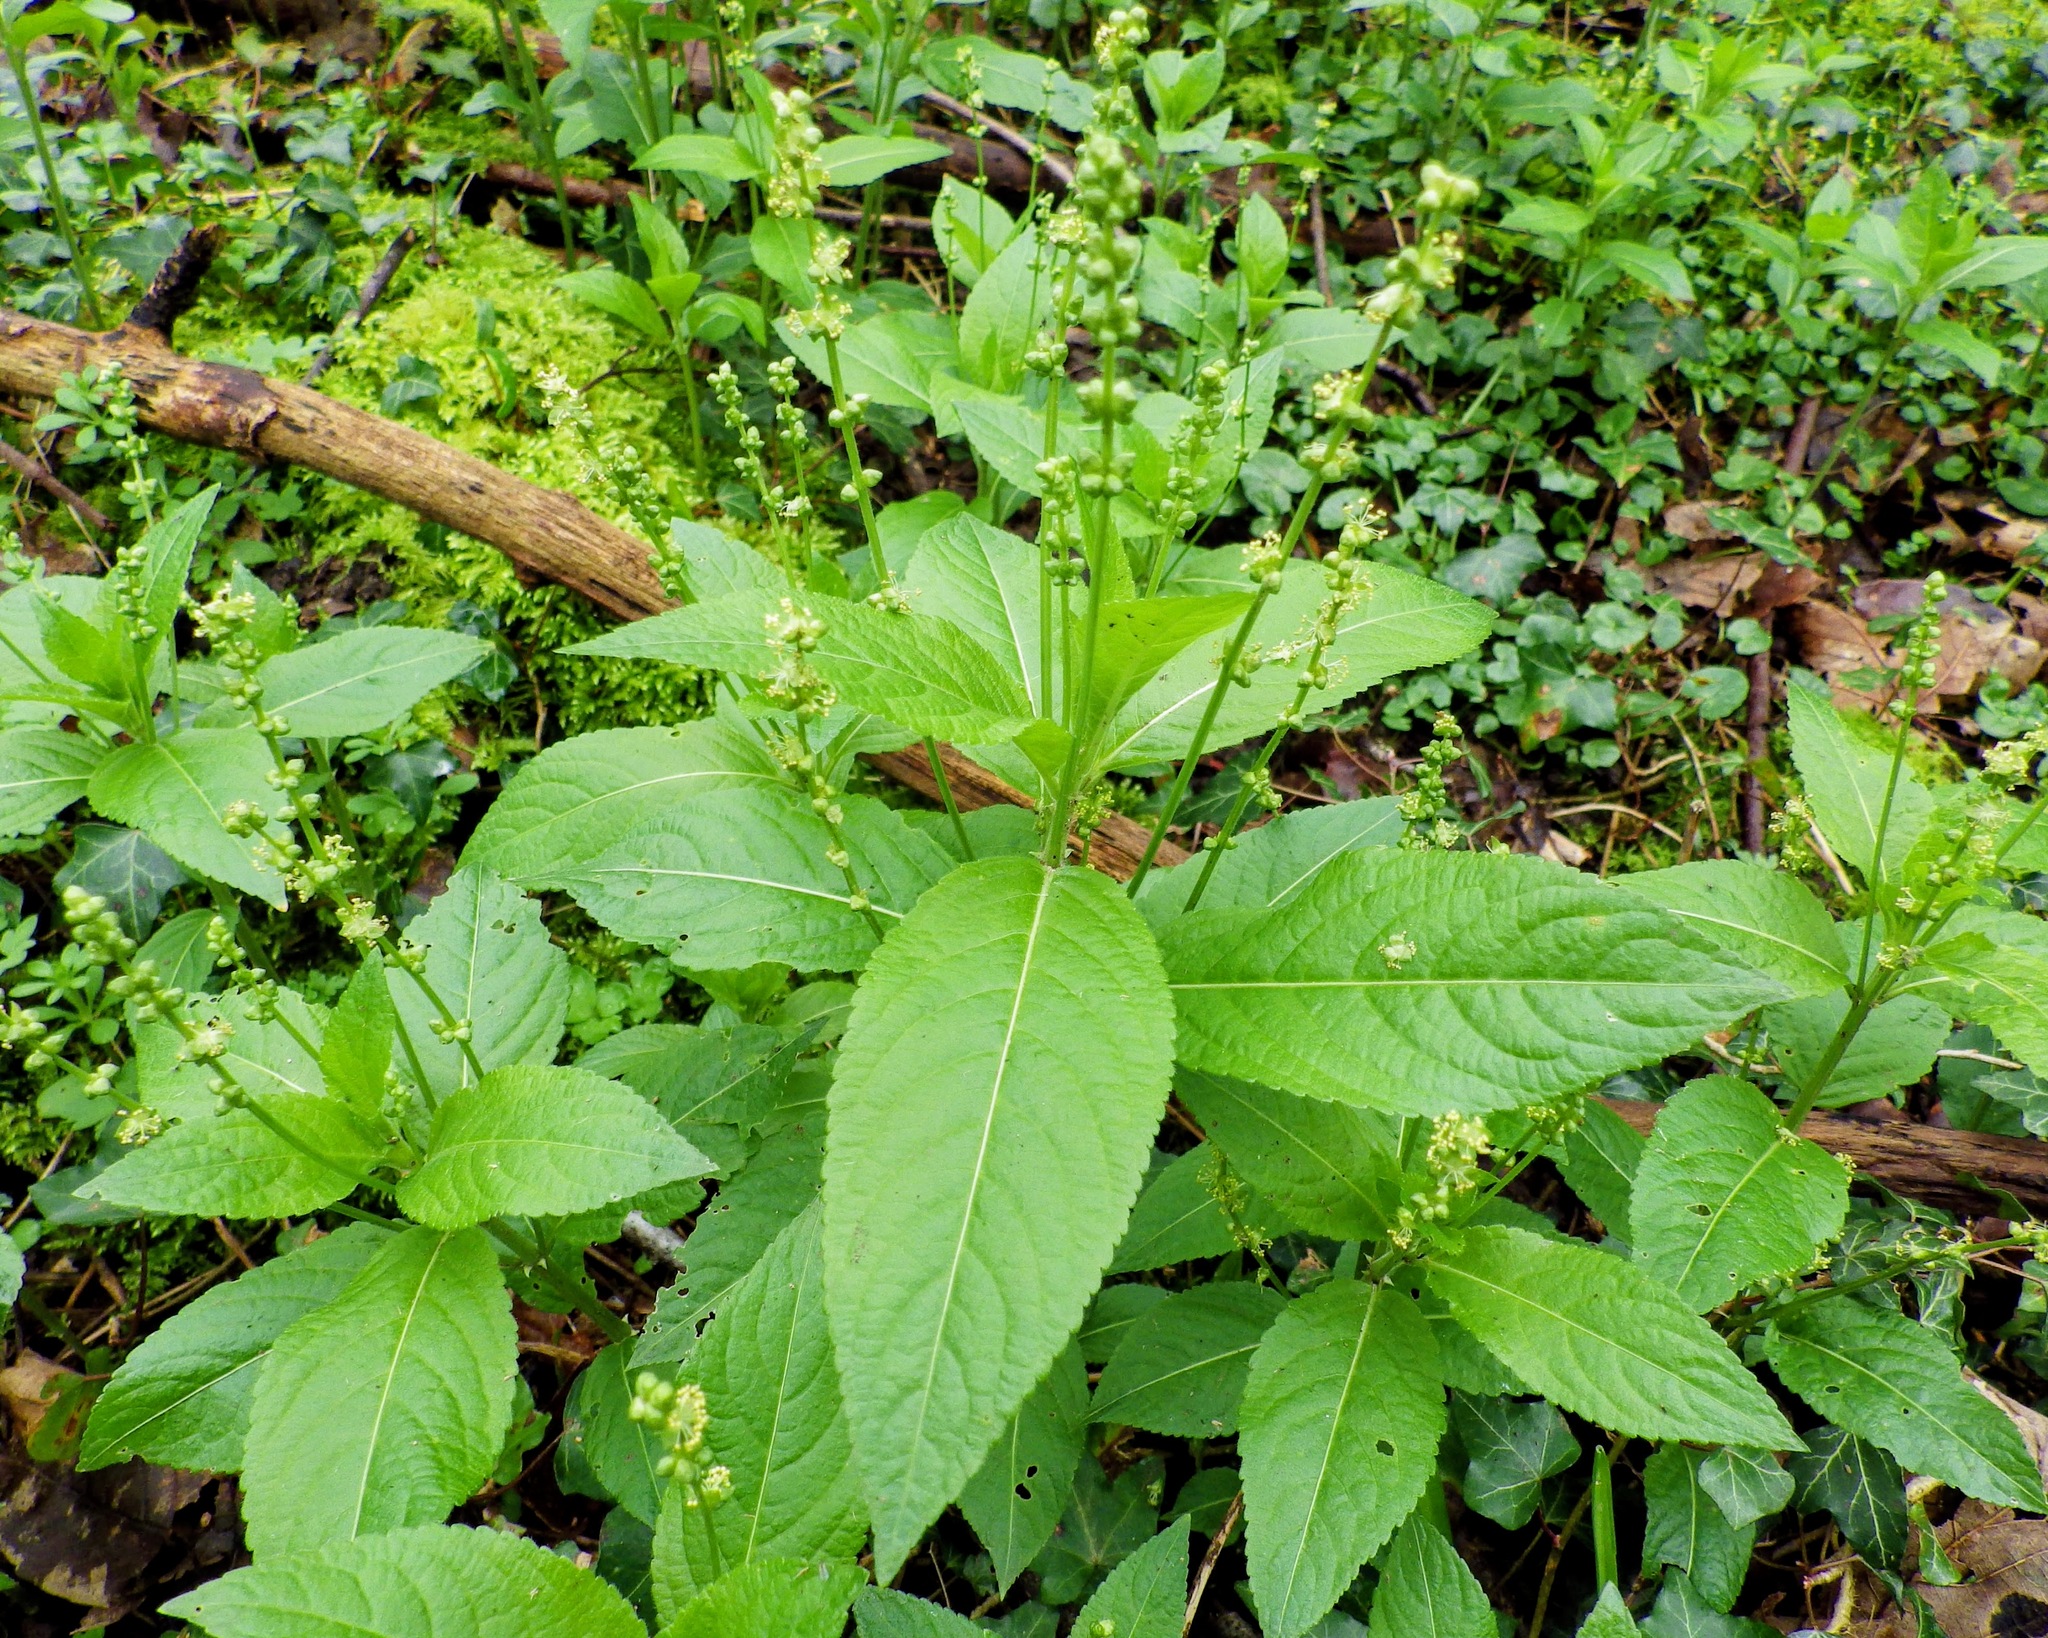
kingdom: Plantae
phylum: Tracheophyta
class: Magnoliopsida
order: Malpighiales
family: Euphorbiaceae
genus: Mercurialis
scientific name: Mercurialis perennis
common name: Dog mercury
